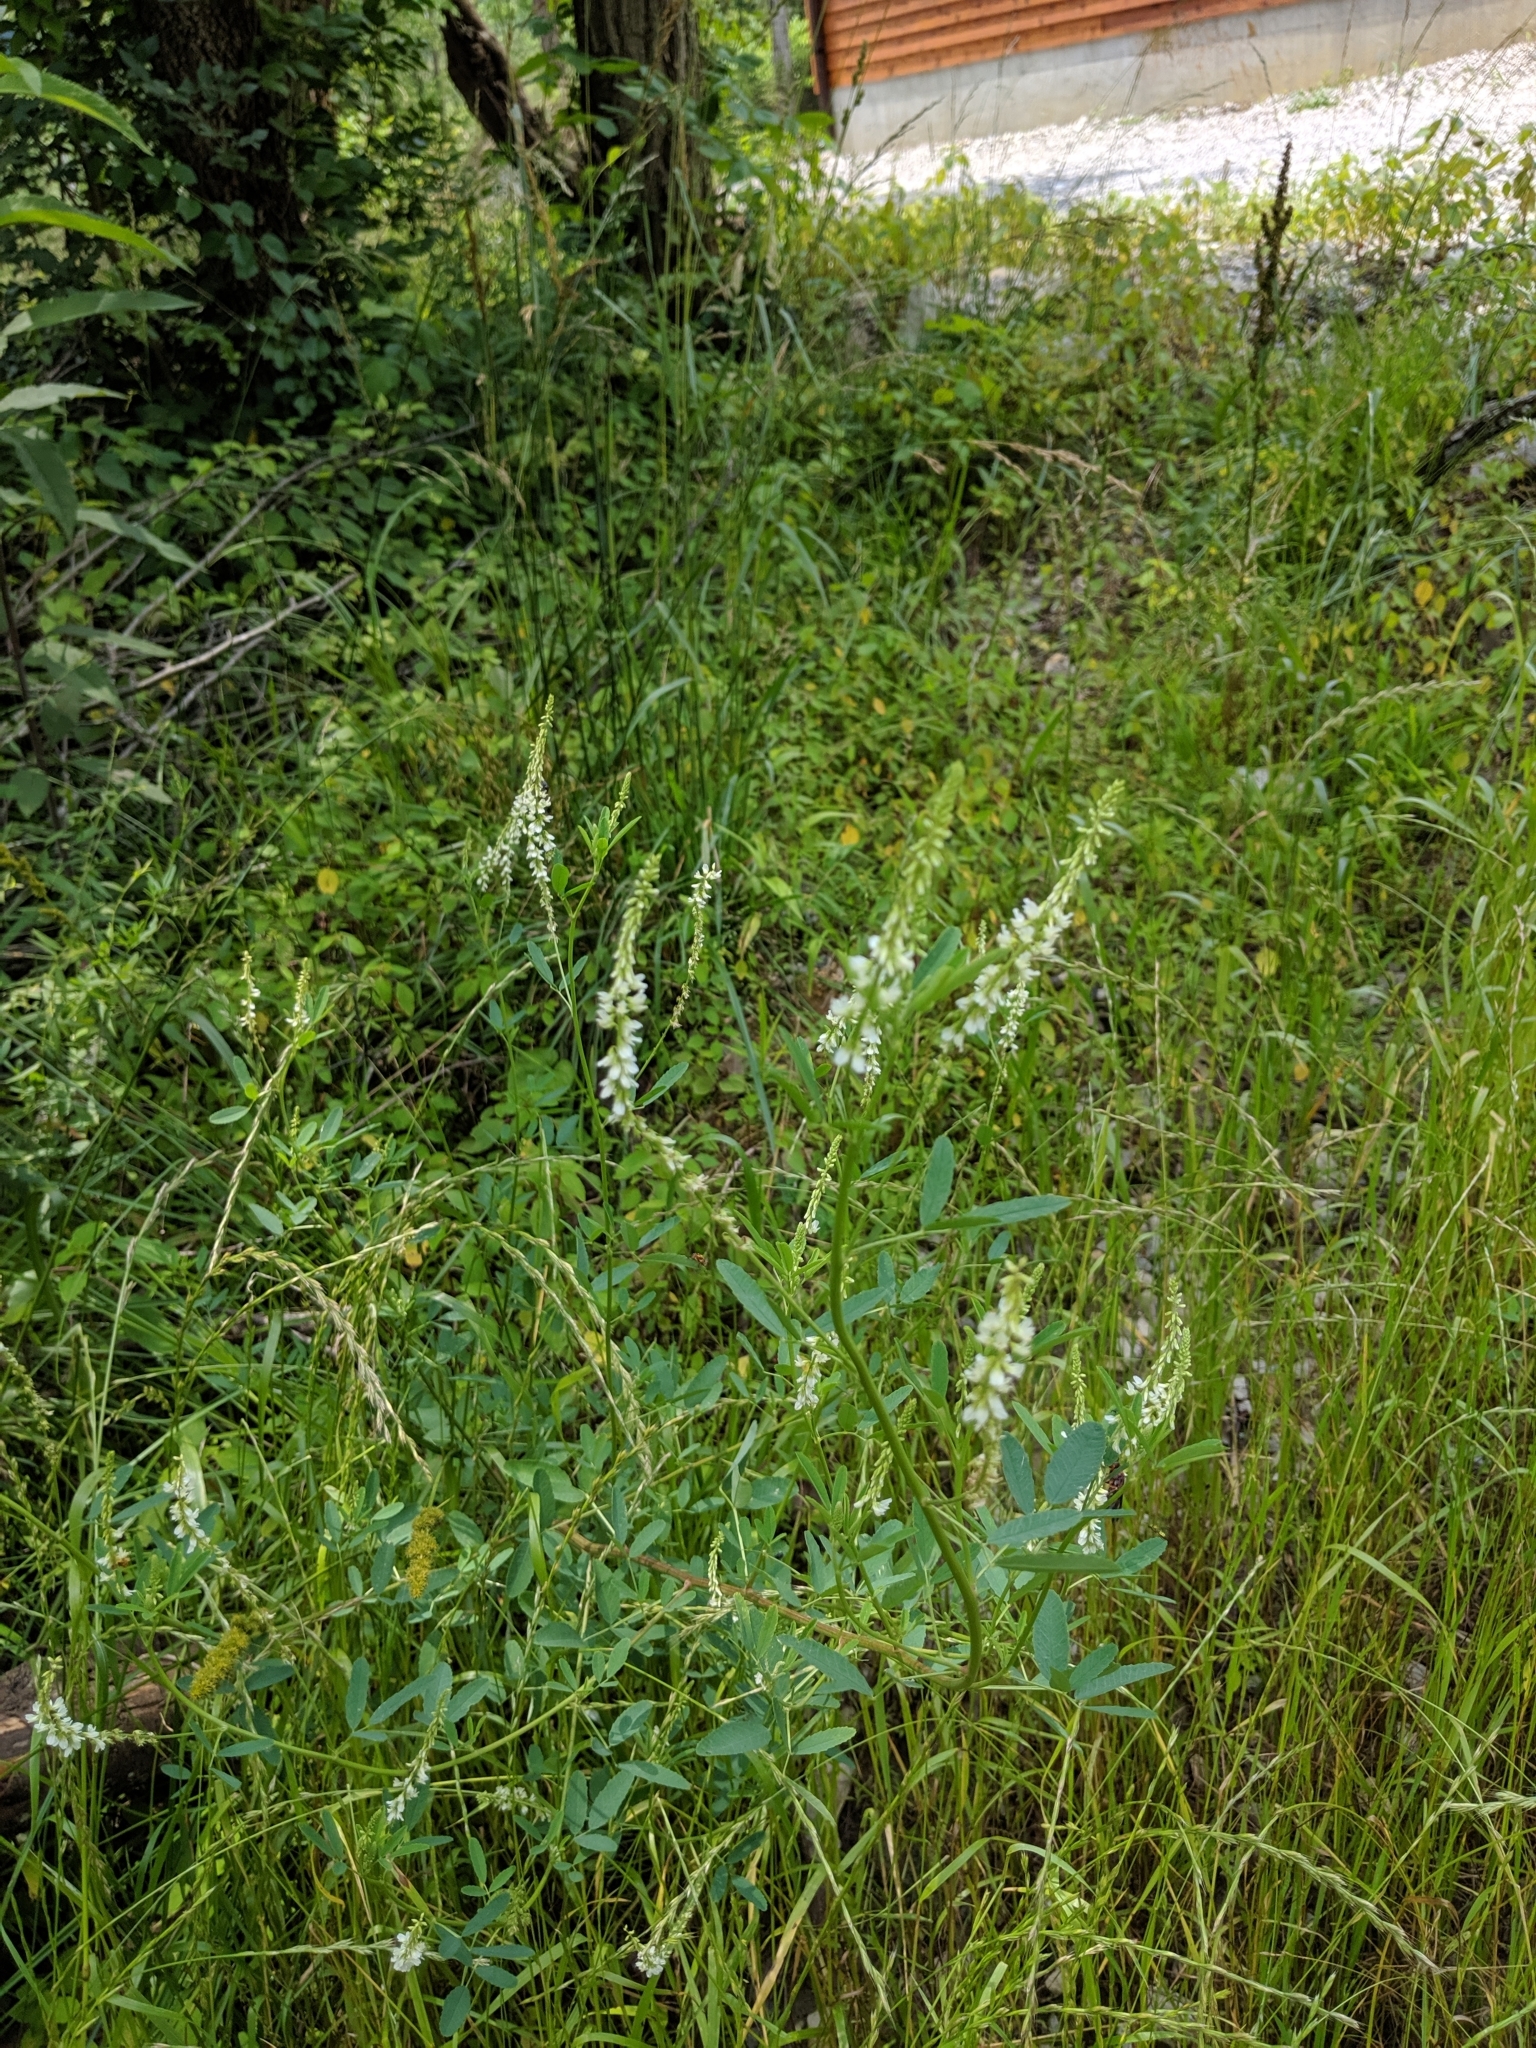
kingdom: Plantae
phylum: Tracheophyta
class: Magnoliopsida
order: Fabales
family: Fabaceae
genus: Melilotus
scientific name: Melilotus albus
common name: White melilot
